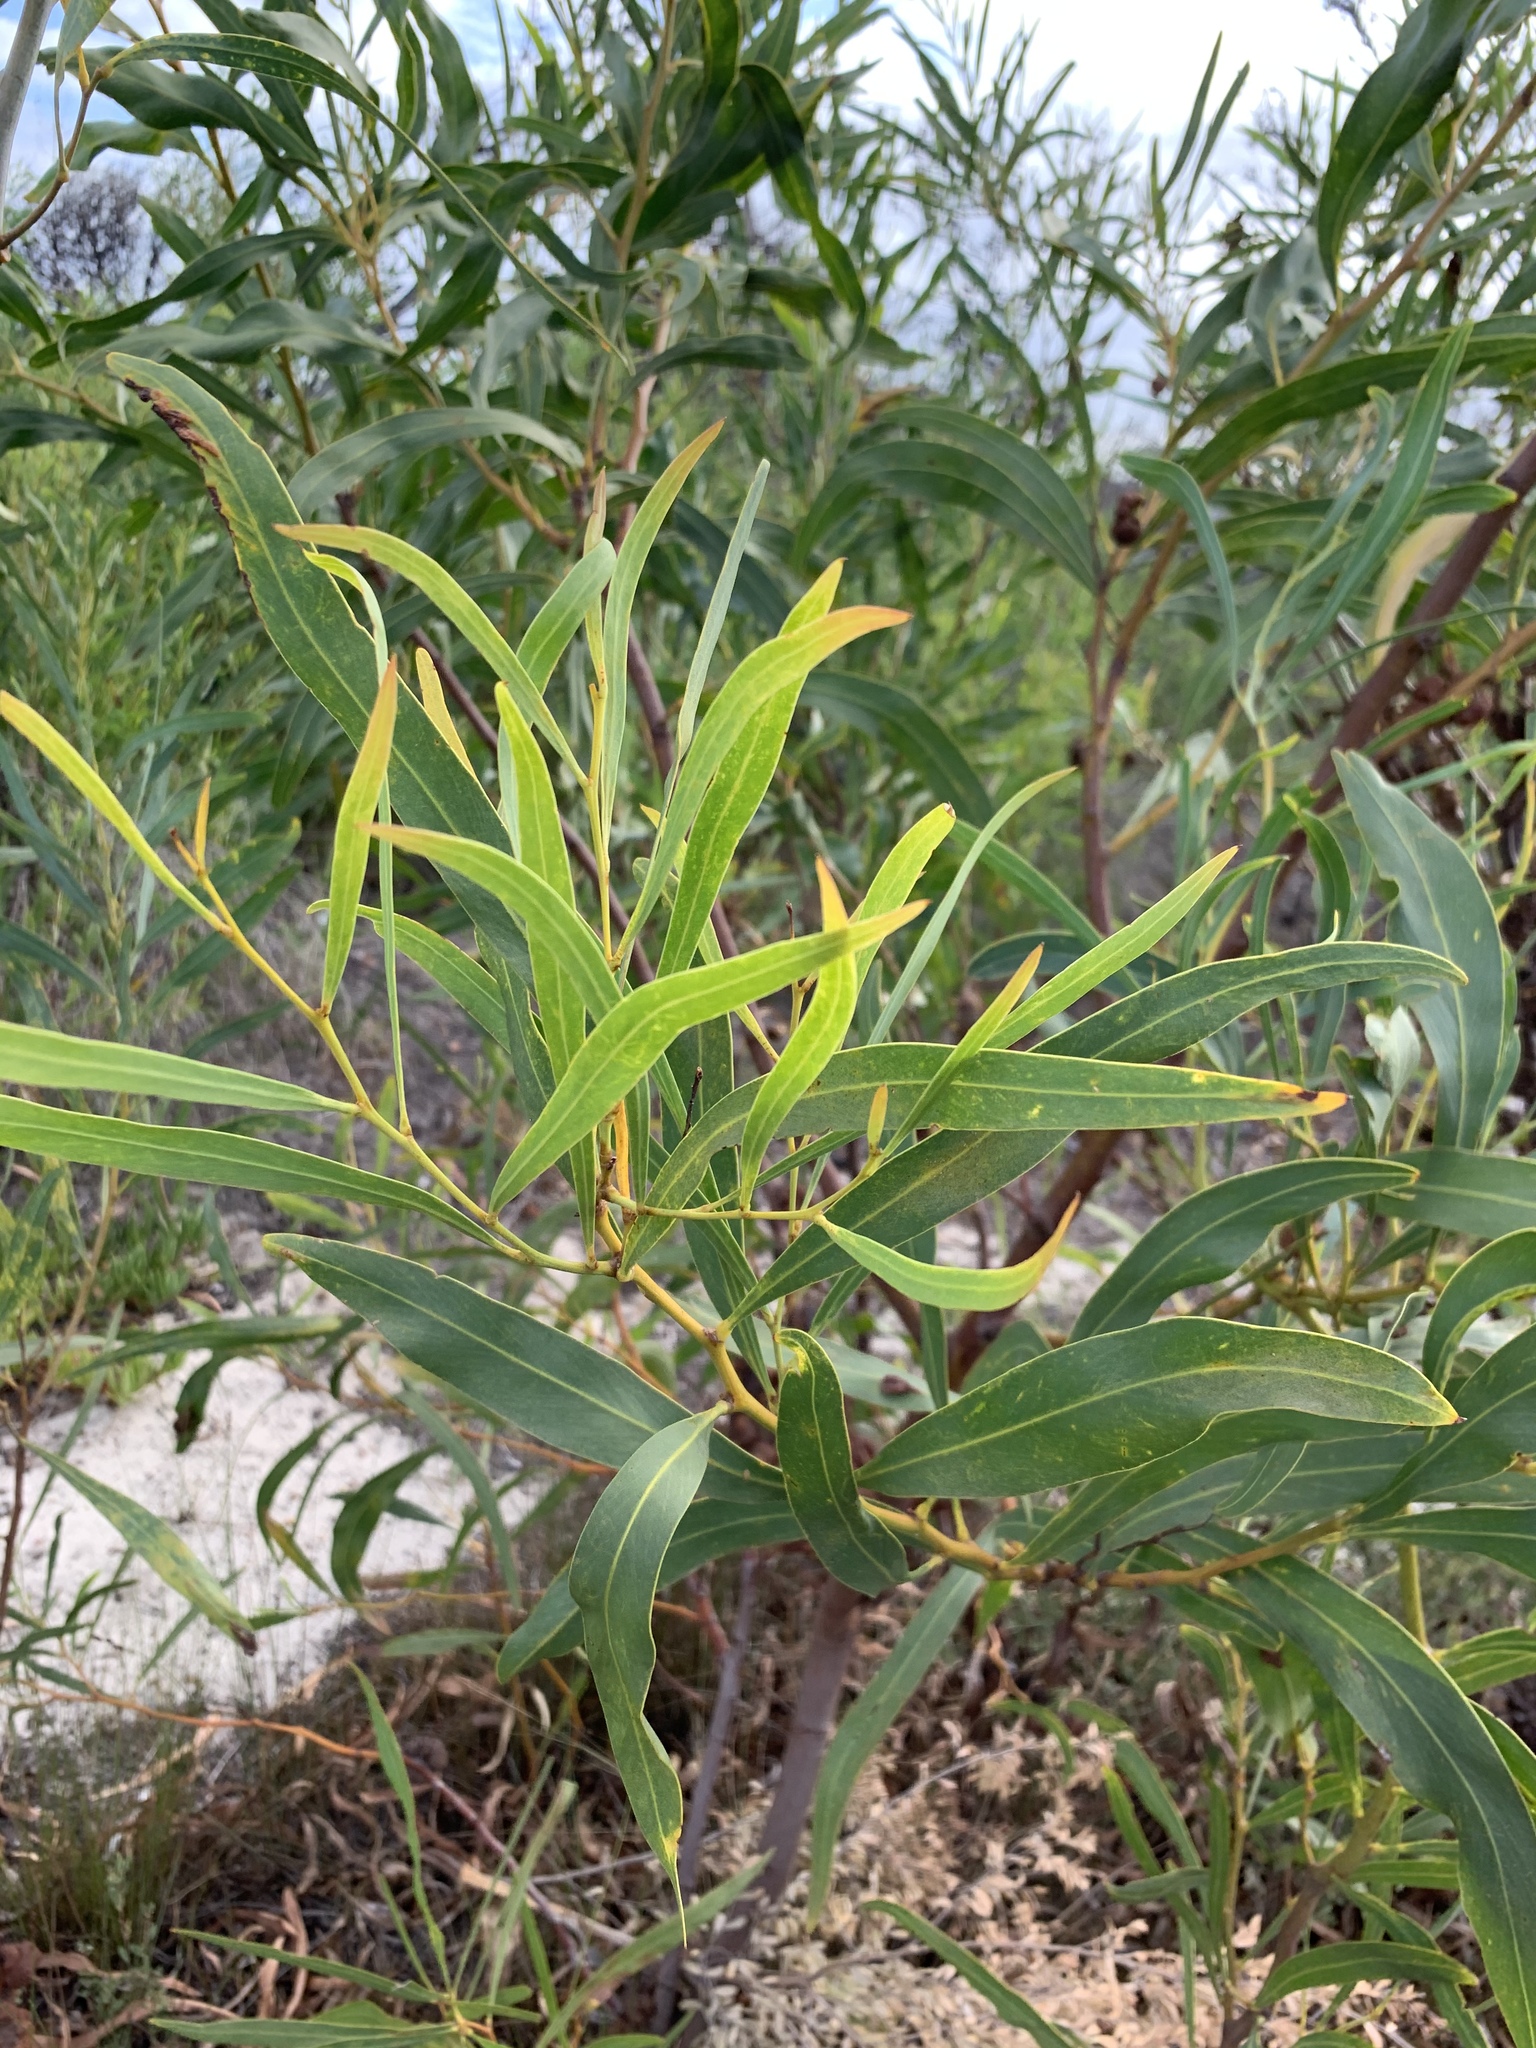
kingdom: Plantae
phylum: Tracheophyta
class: Magnoliopsida
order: Fabales
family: Fabaceae
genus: Acacia
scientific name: Acacia saligna
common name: Orange wattle
